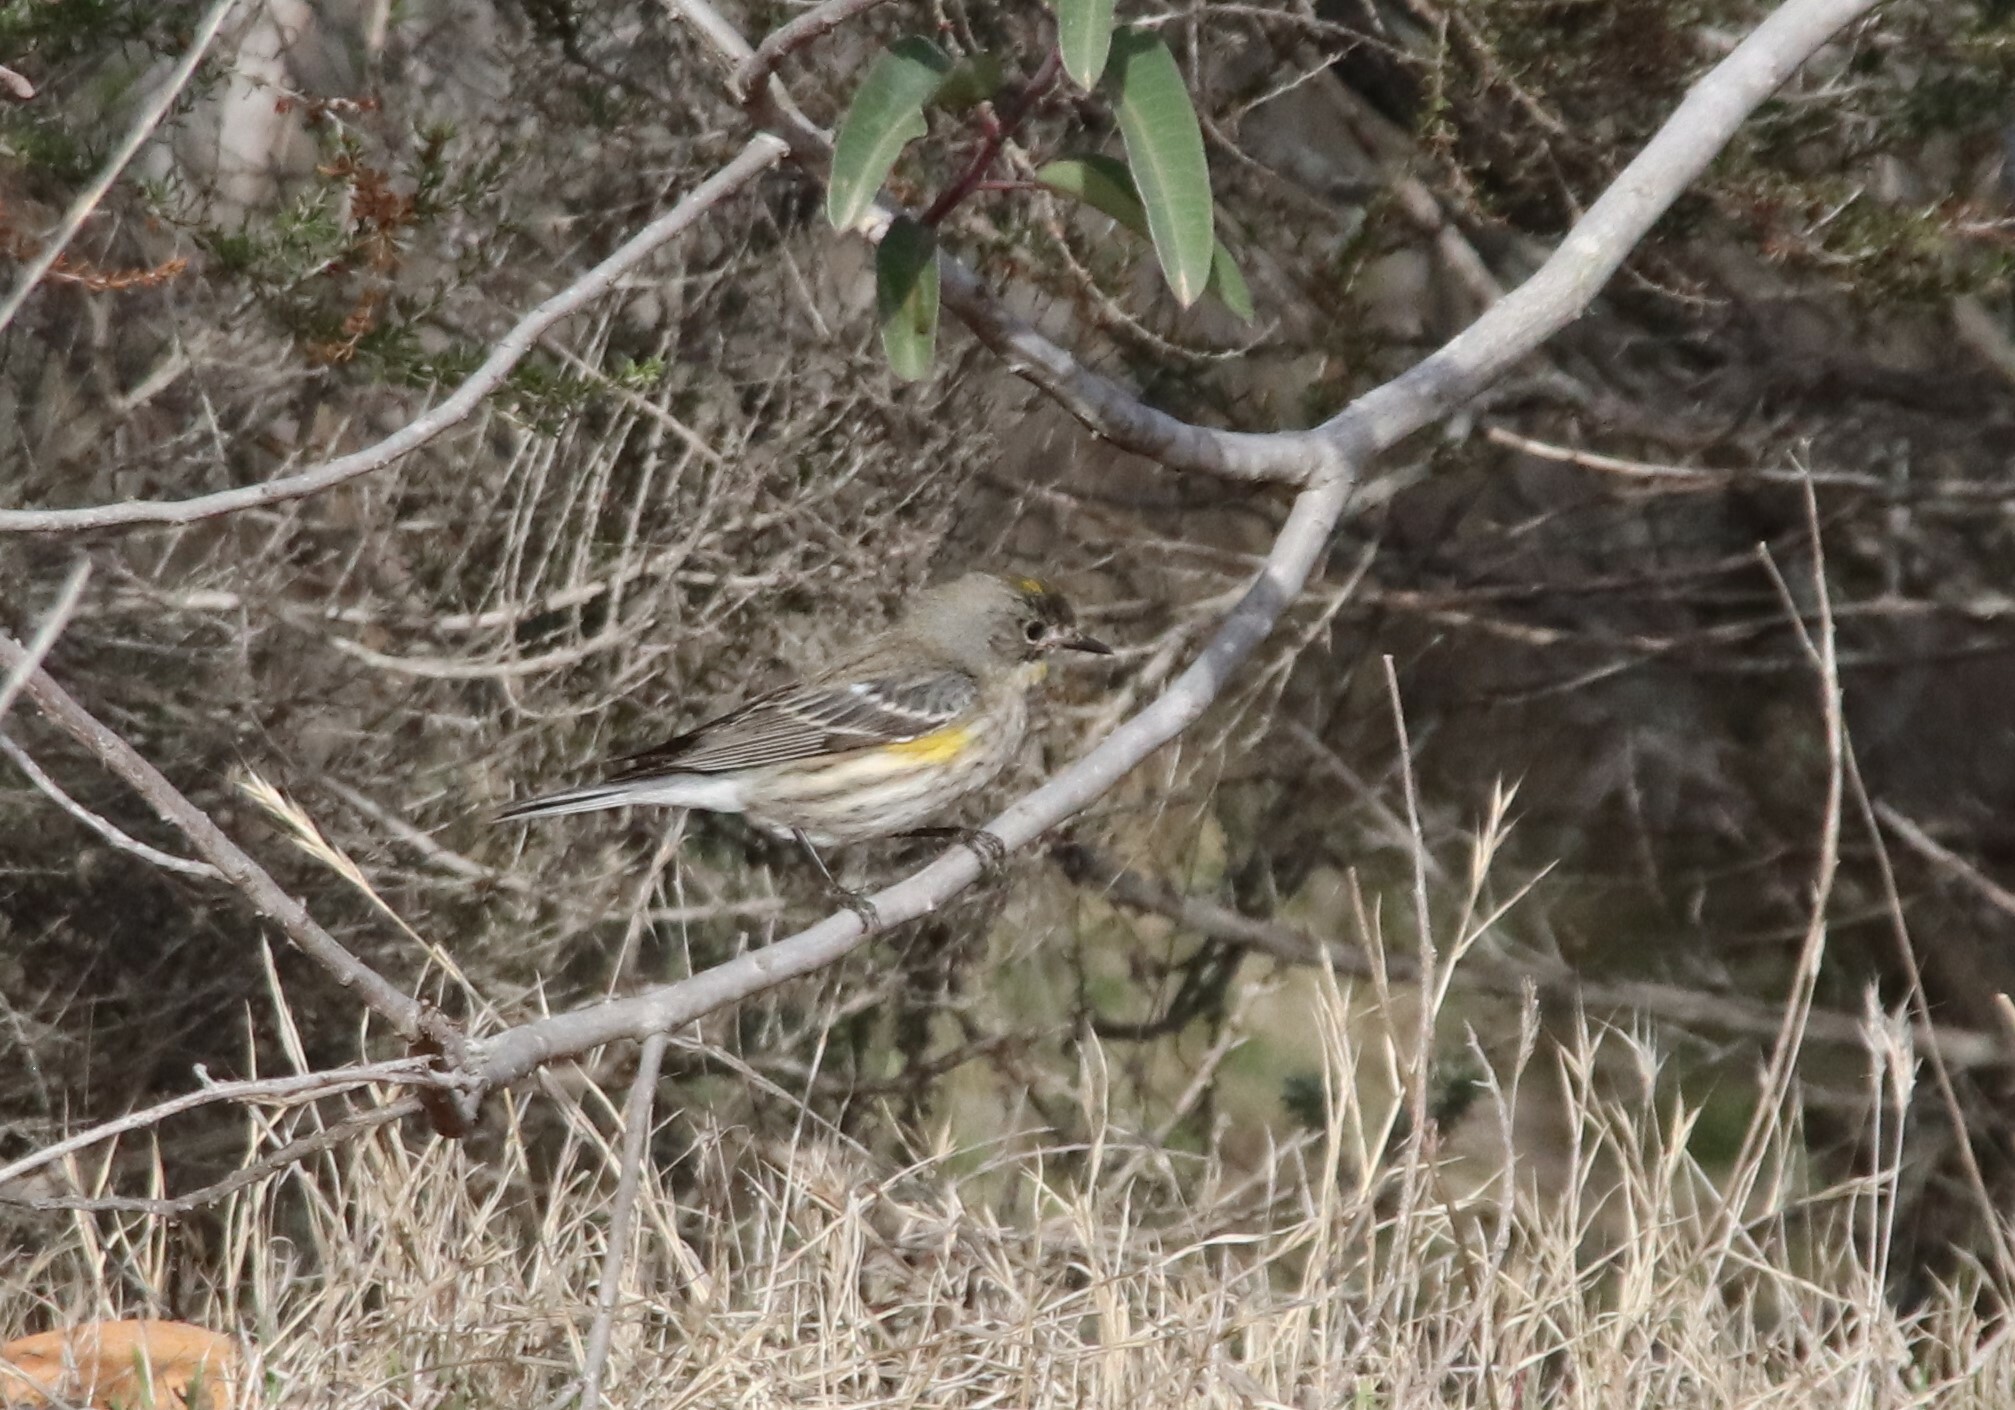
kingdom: Animalia
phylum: Chordata
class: Aves
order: Passeriformes
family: Parulidae
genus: Setophaga
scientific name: Setophaga coronata
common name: Myrtle warbler
